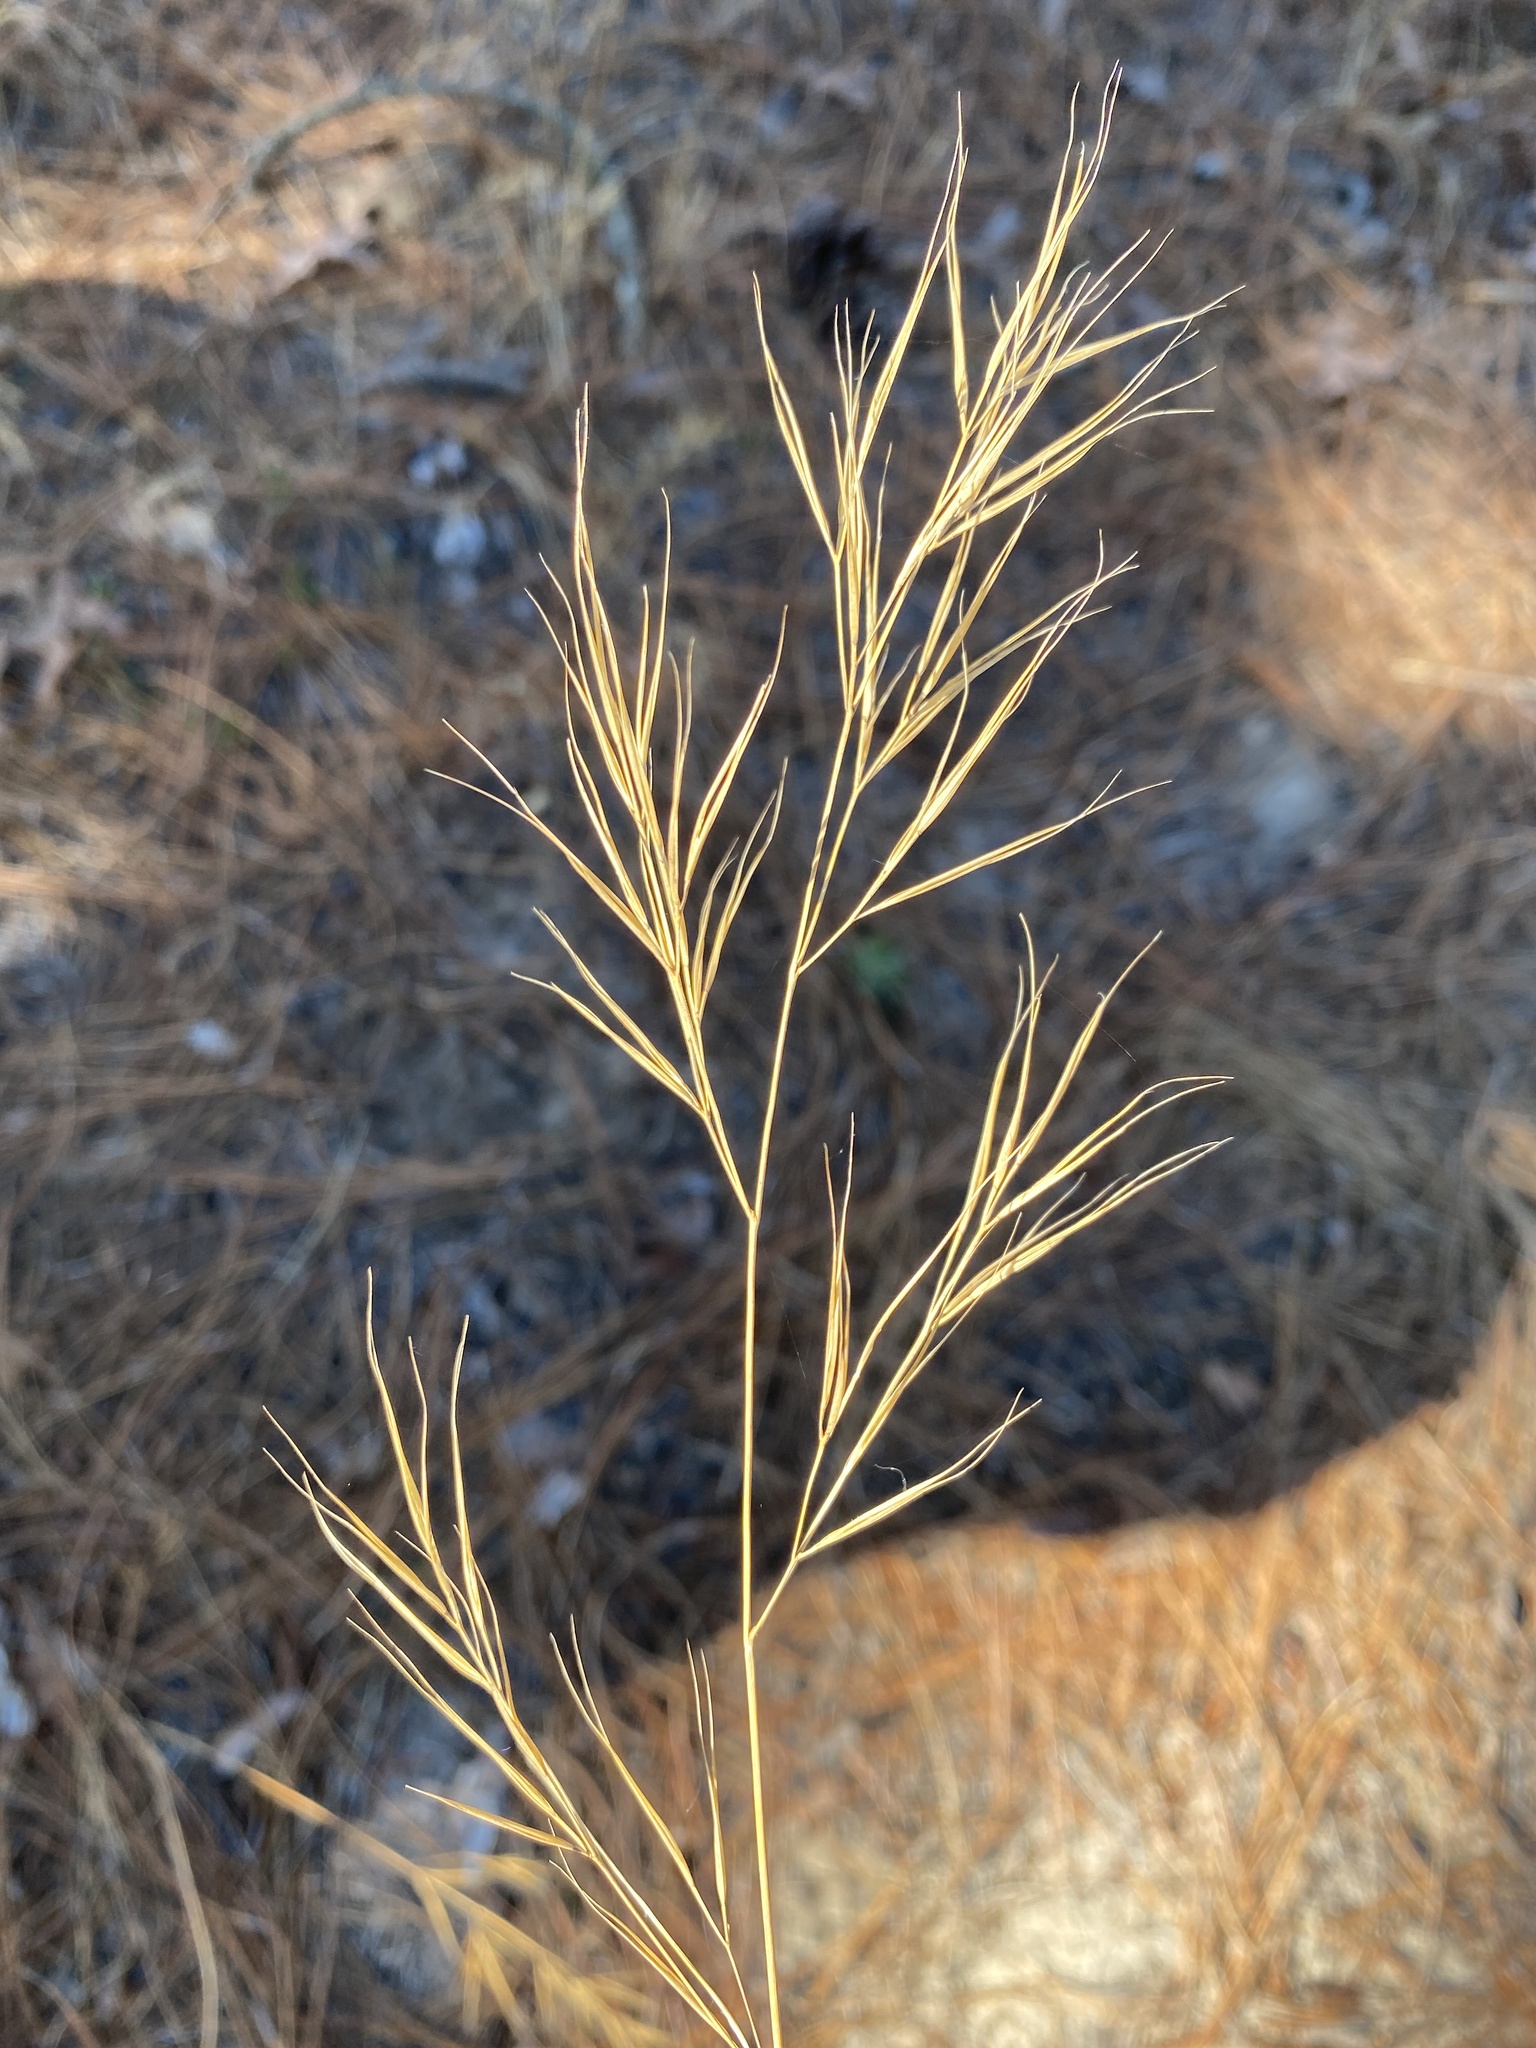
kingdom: Plantae
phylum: Tracheophyta
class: Liliopsida
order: Poales
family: Poaceae
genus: Aristida
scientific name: Aristida tuberculosa
